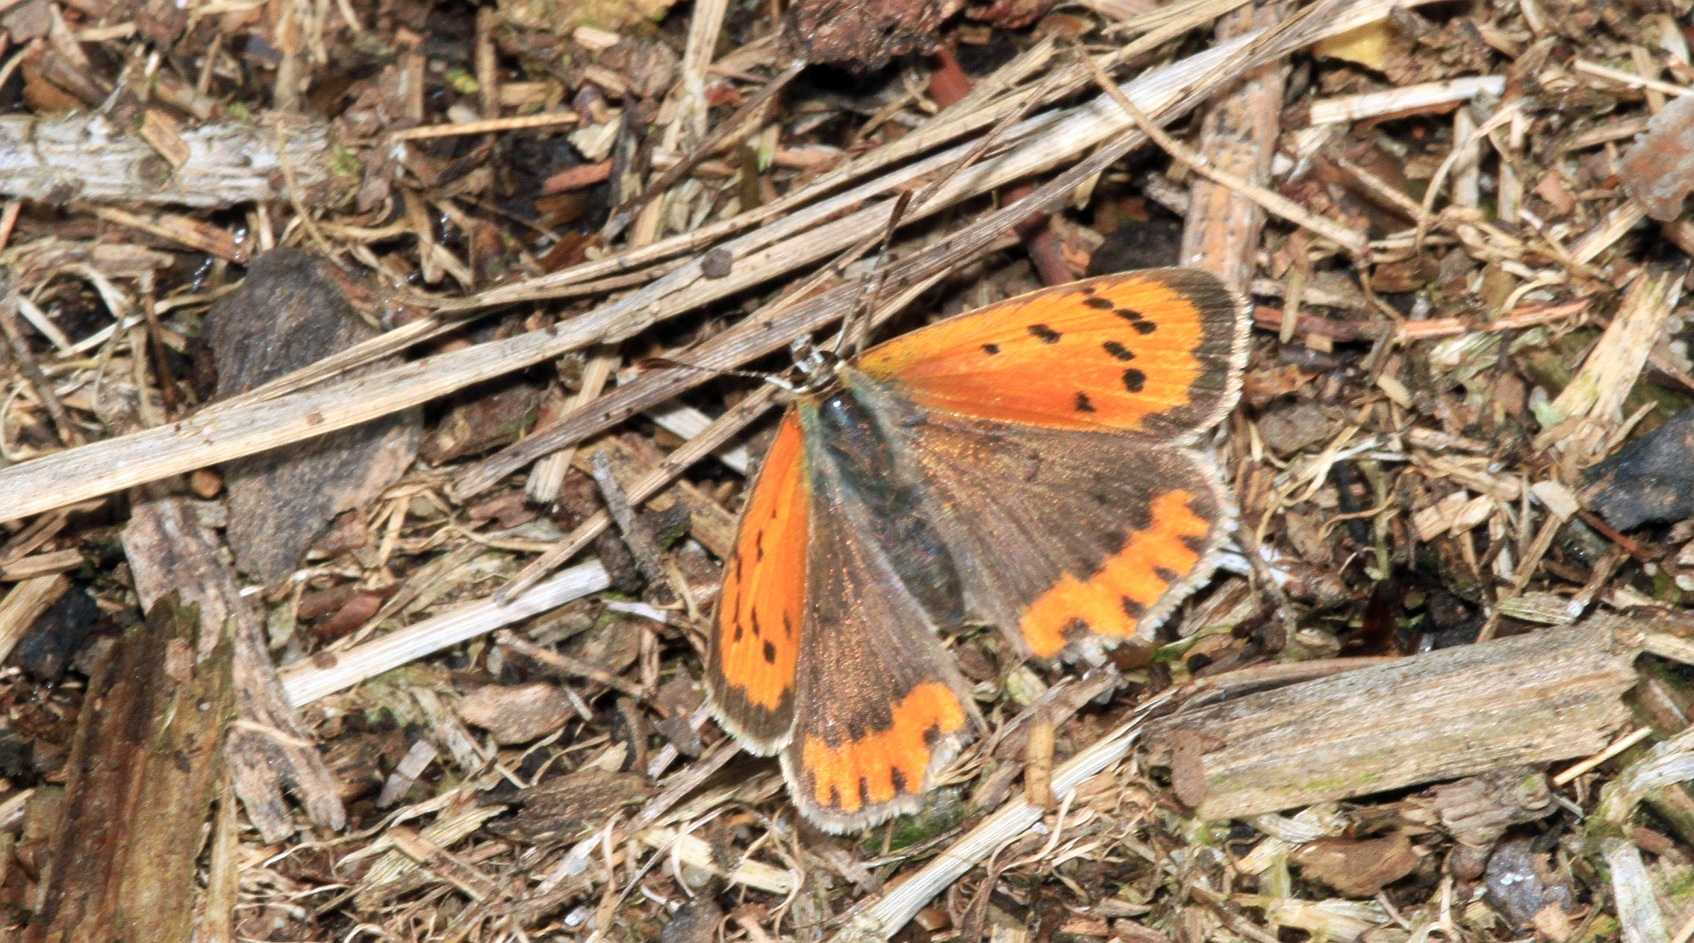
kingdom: Animalia
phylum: Arthropoda
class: Insecta
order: Lepidoptera
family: Lycaenidae
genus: Lycaena
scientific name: Lycaena phlaeas
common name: Small copper
